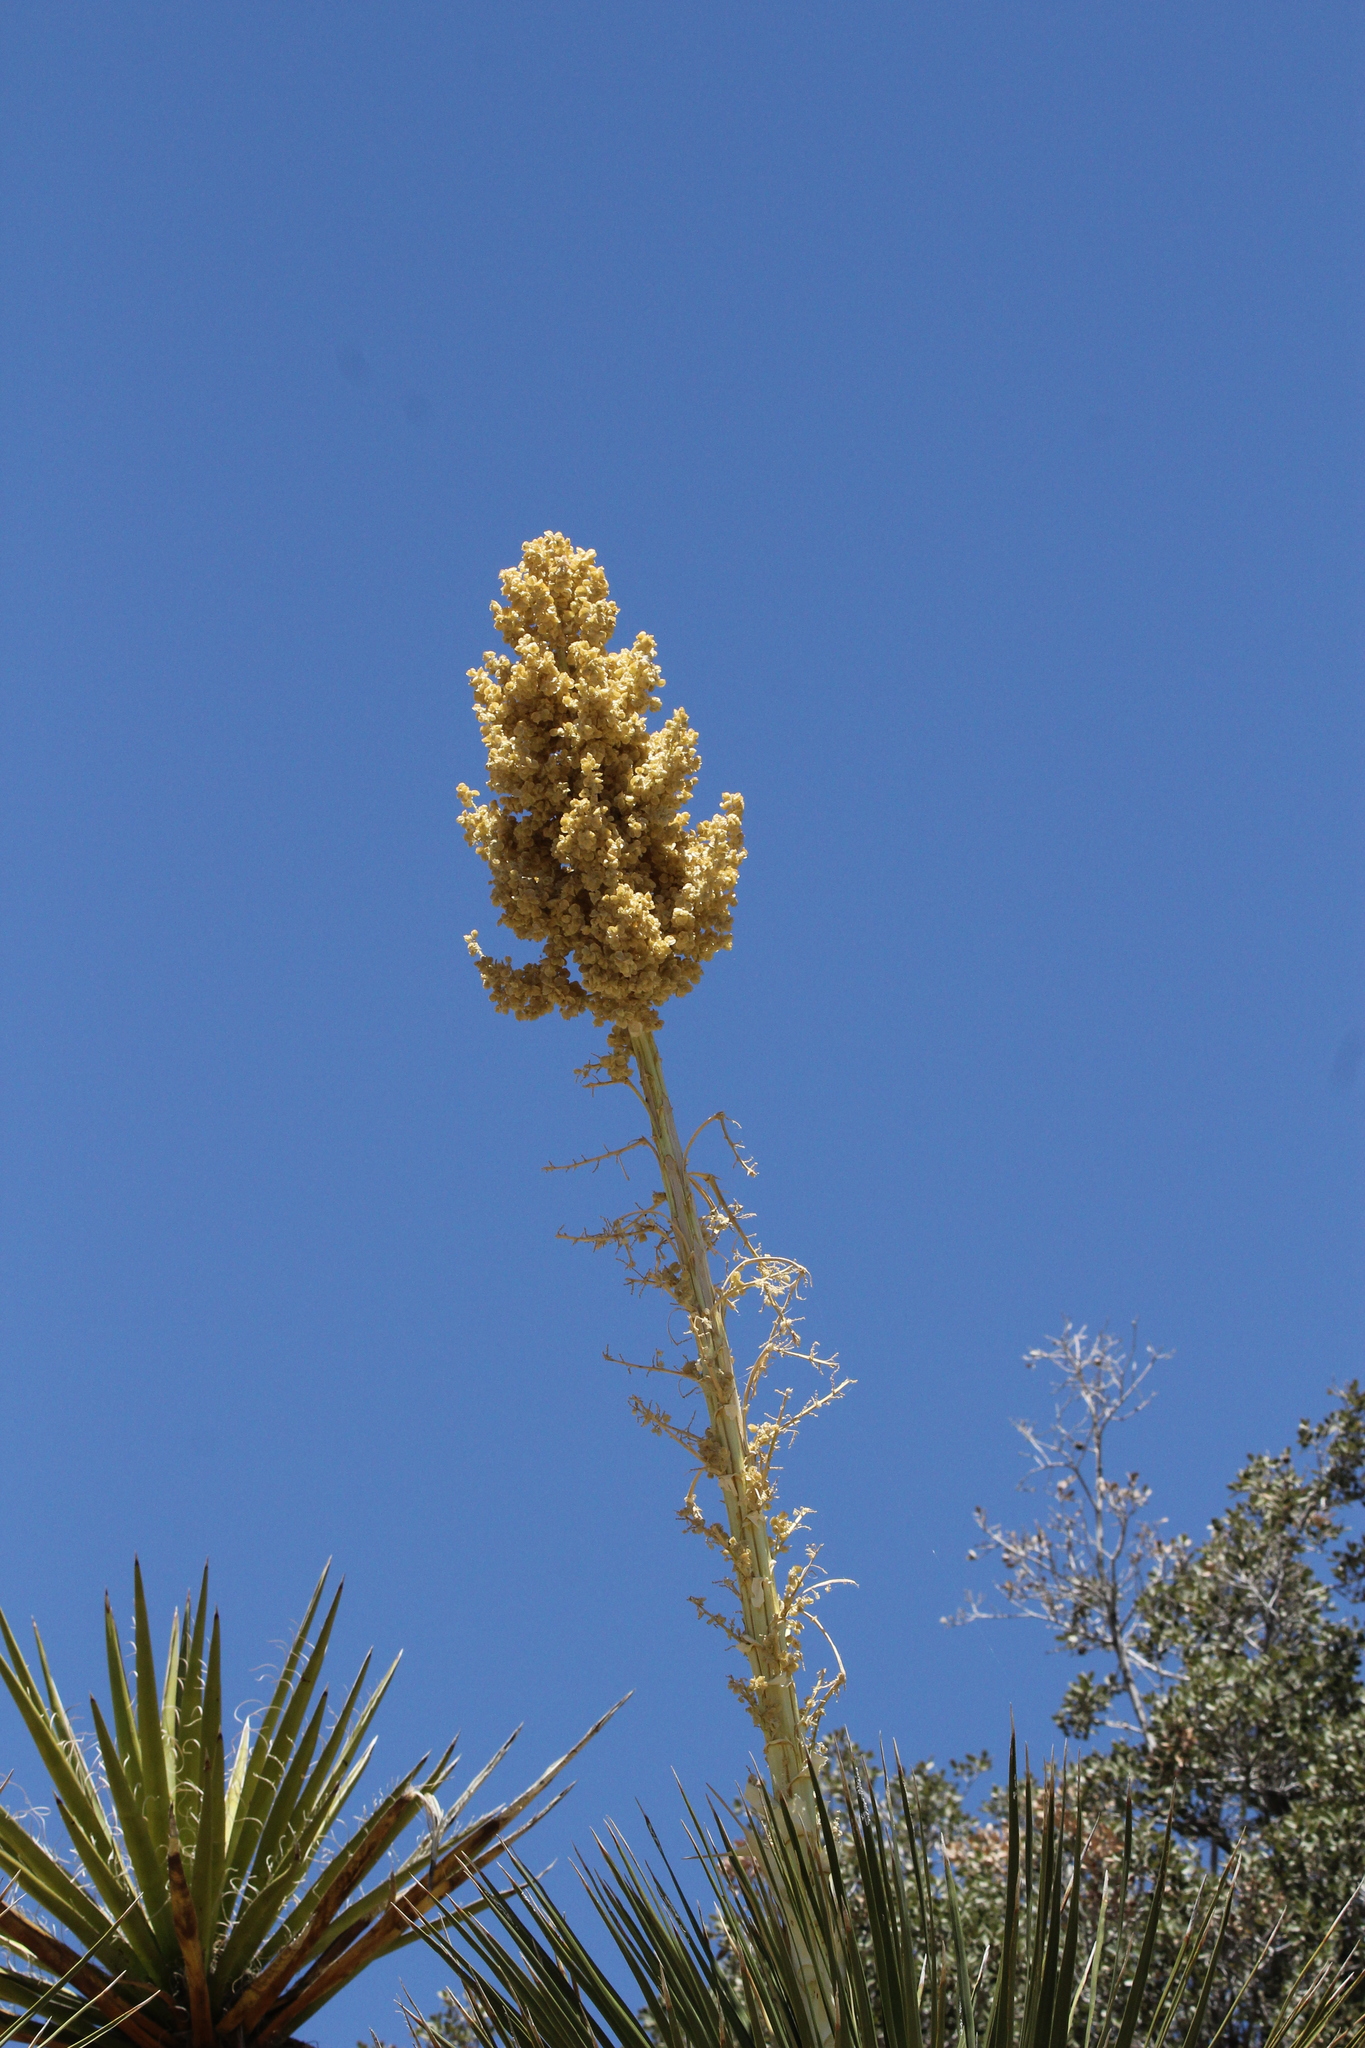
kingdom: Plantae
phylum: Tracheophyta
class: Liliopsida
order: Asparagales
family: Asparagaceae
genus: Nolina
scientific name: Nolina parryi
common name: Parry nolina
